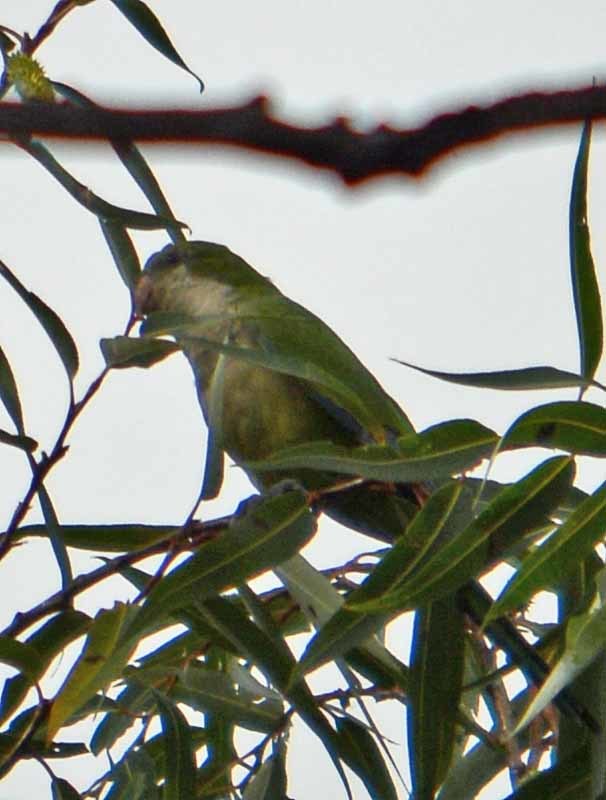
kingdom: Animalia
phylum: Chordata
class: Aves
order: Psittaciformes
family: Psittacidae
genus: Myiopsitta
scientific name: Myiopsitta monachus
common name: Monk parakeet
